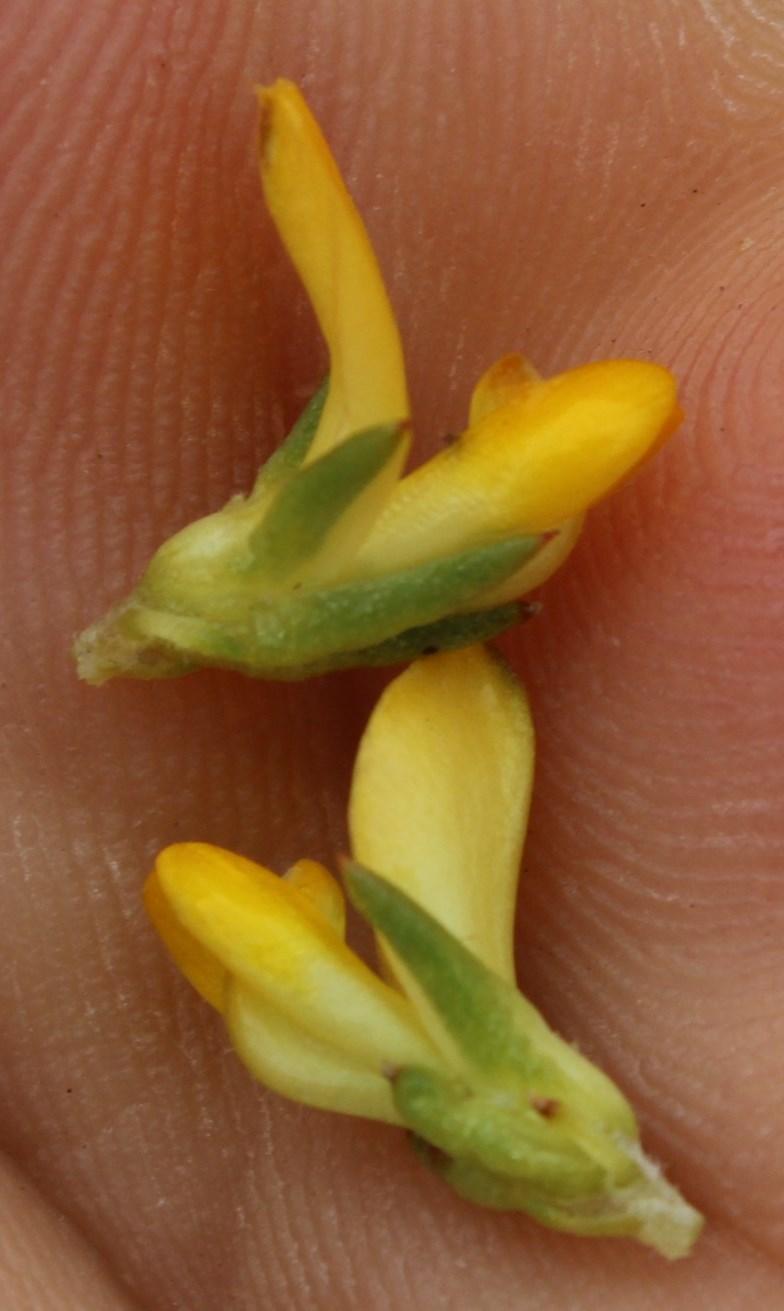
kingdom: Plantae
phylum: Tracheophyta
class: Magnoliopsida
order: Fabales
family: Fabaceae
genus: Aspalathus
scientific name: Aspalathus juniperina
